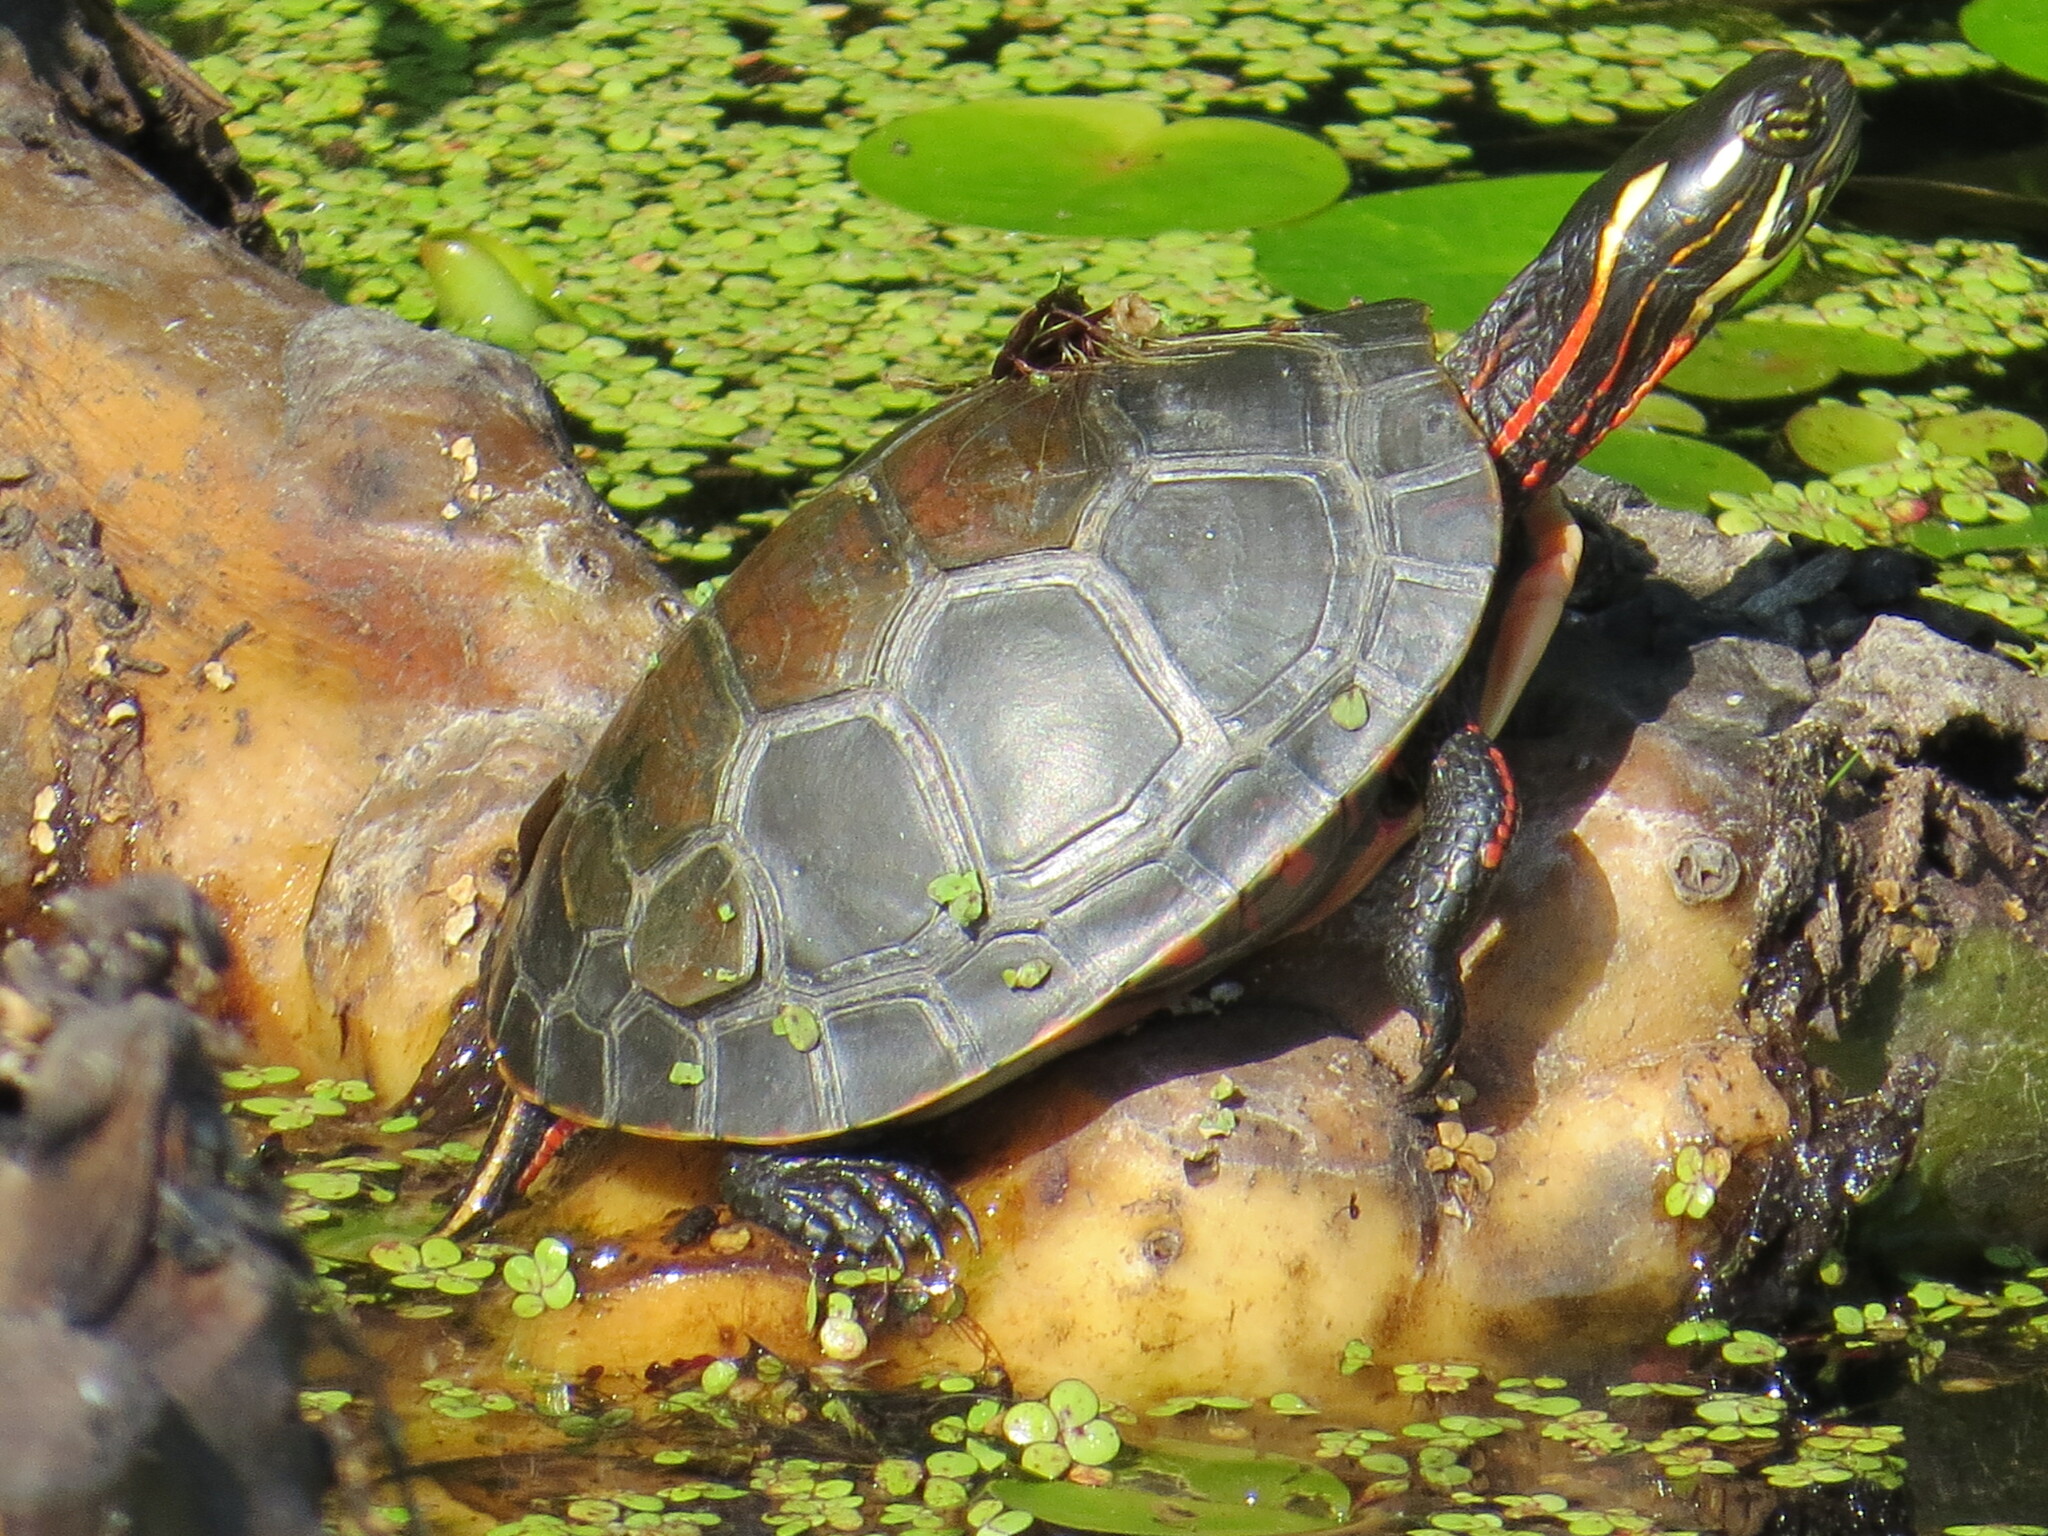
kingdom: Animalia
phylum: Chordata
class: Testudines
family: Emydidae
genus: Chrysemys
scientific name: Chrysemys picta
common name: Painted turtle
